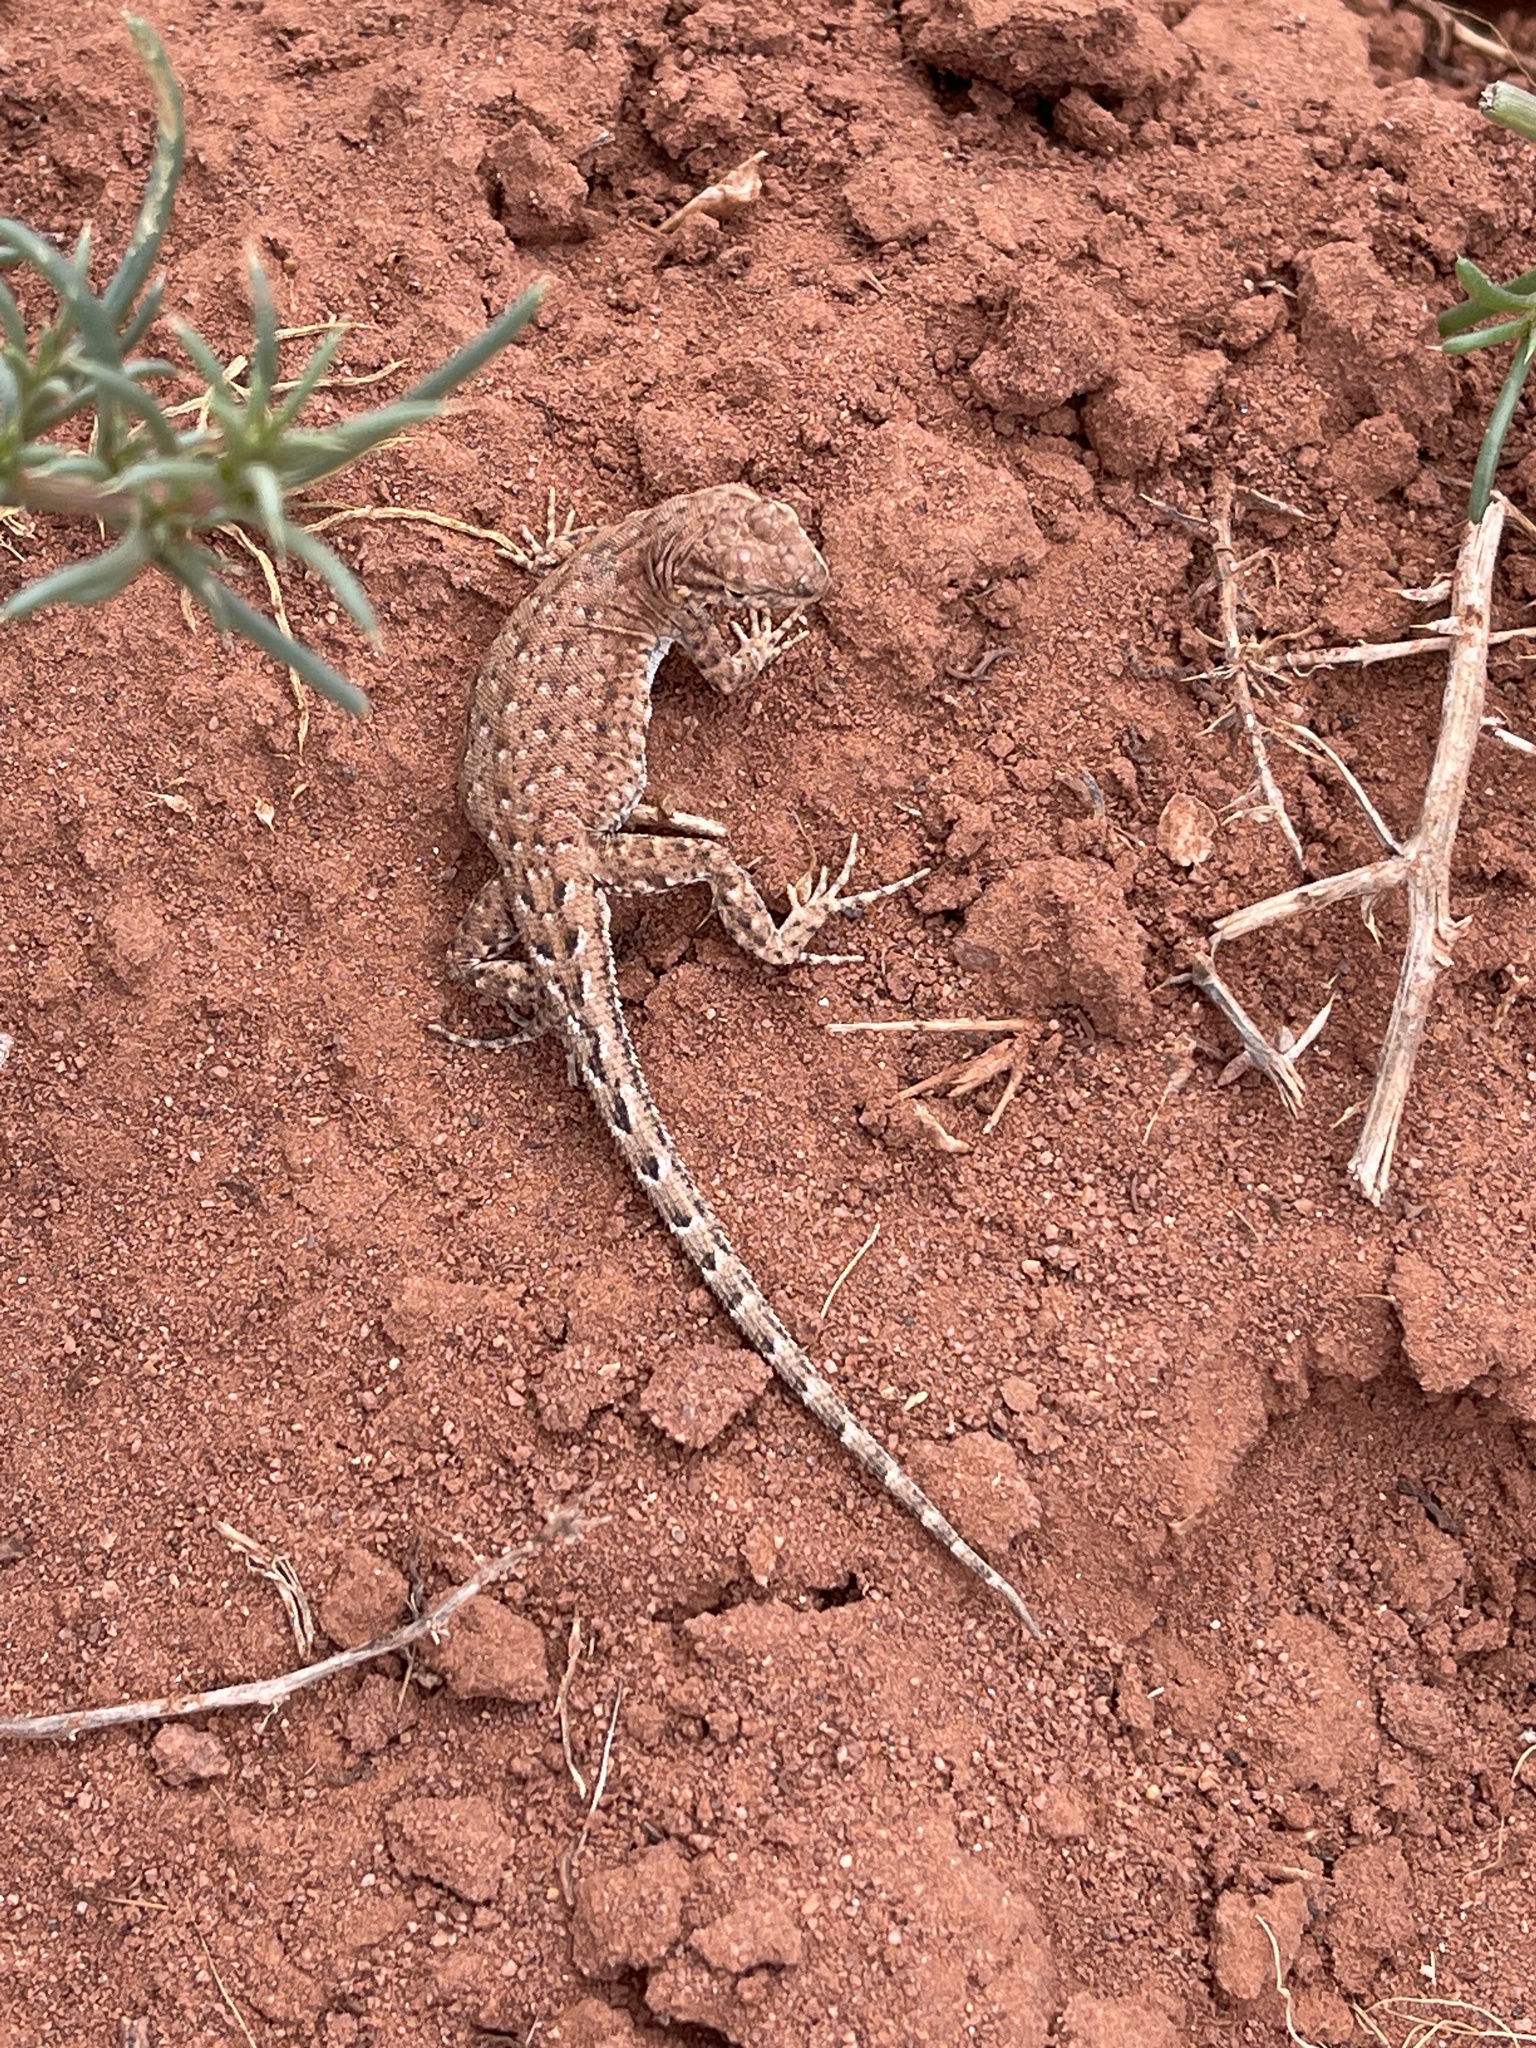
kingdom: Animalia
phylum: Chordata
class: Squamata
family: Phrynosomatidae
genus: Uta
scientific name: Uta stansburiana
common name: Side-blotched lizard
